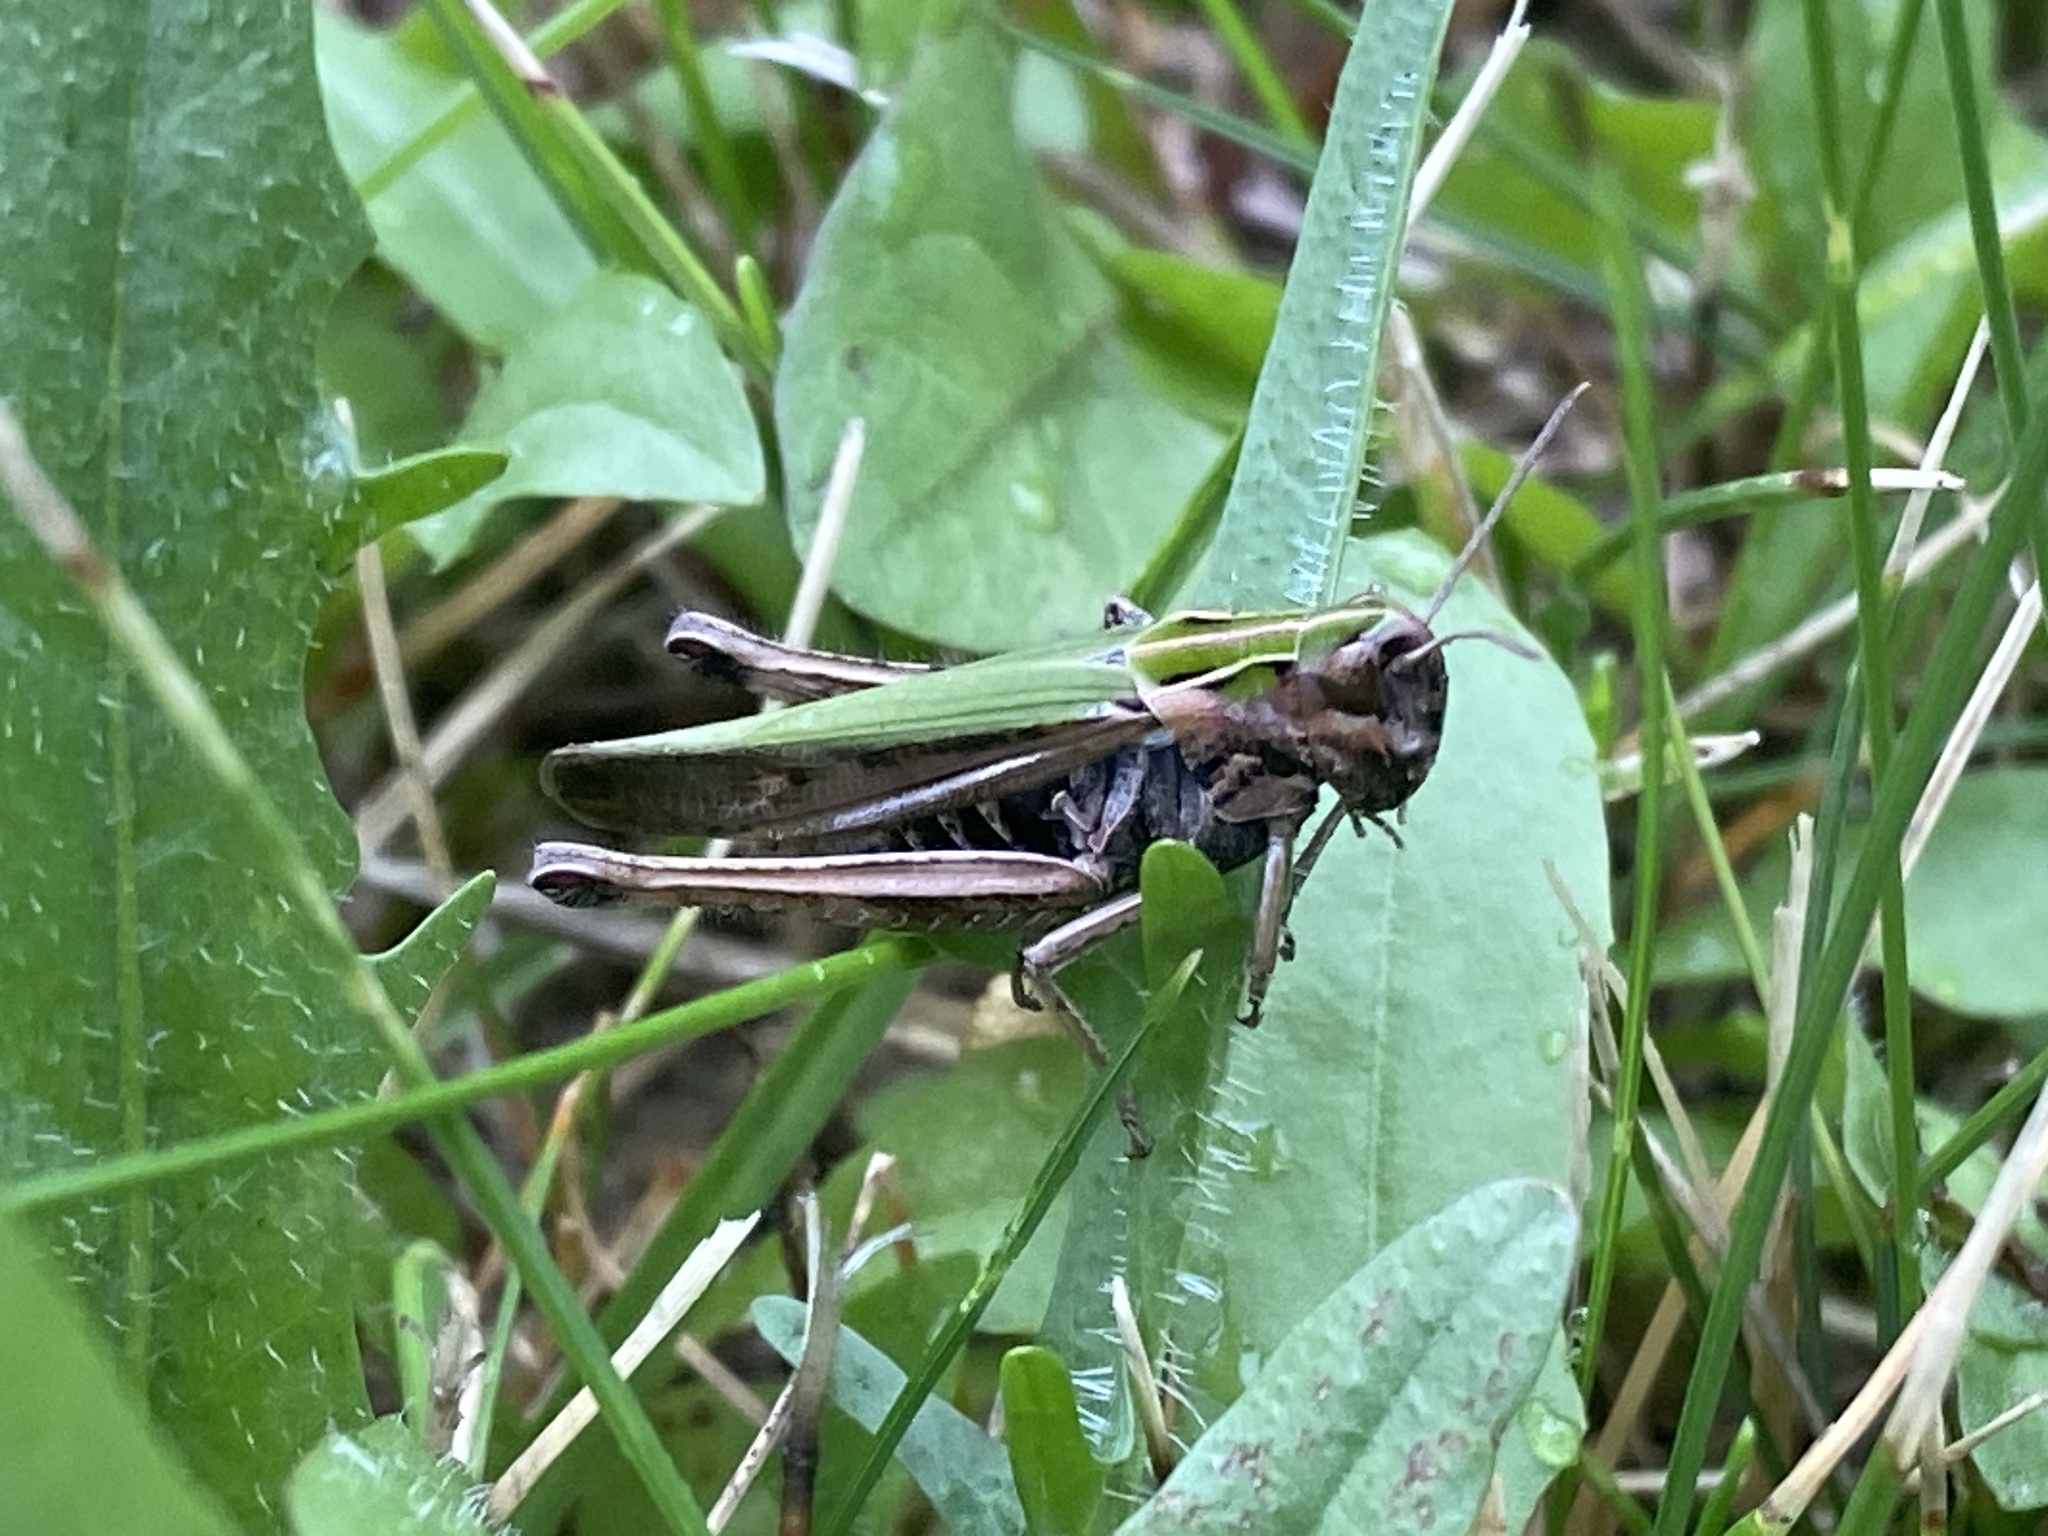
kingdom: Animalia
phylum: Arthropoda
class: Insecta
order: Orthoptera
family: Acrididae
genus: Omocestus
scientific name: Omocestus viridulus
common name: Common green grasshopper
